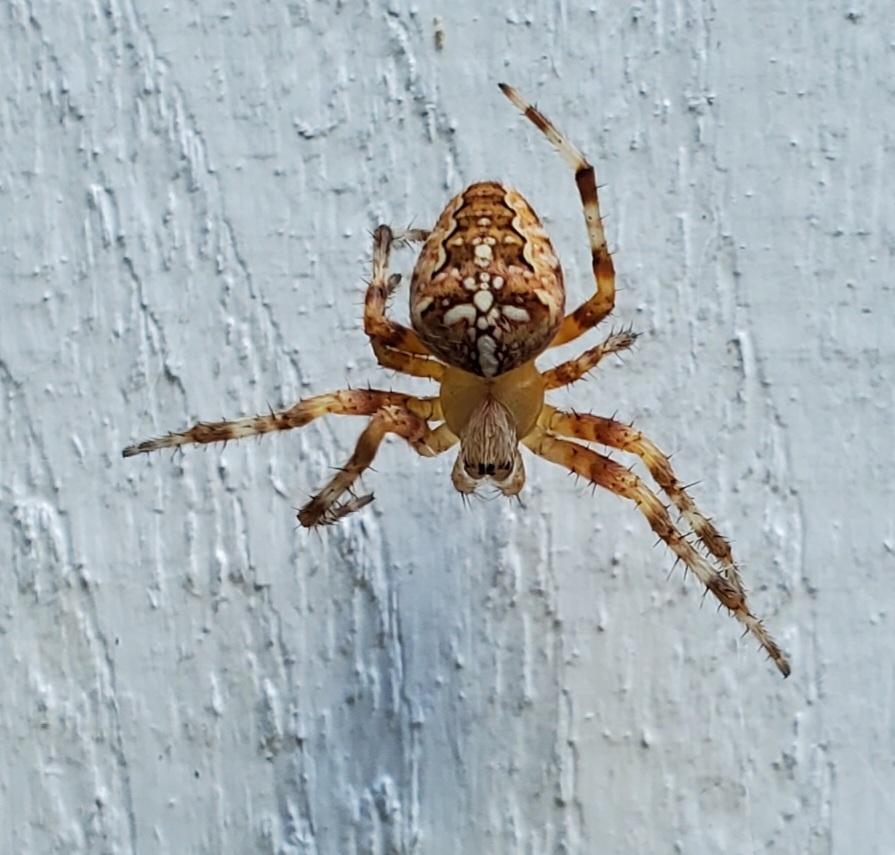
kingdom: Animalia
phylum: Arthropoda
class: Arachnida
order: Araneae
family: Araneidae
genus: Araneus
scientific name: Araneus diadematus
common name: Cross orbweaver
